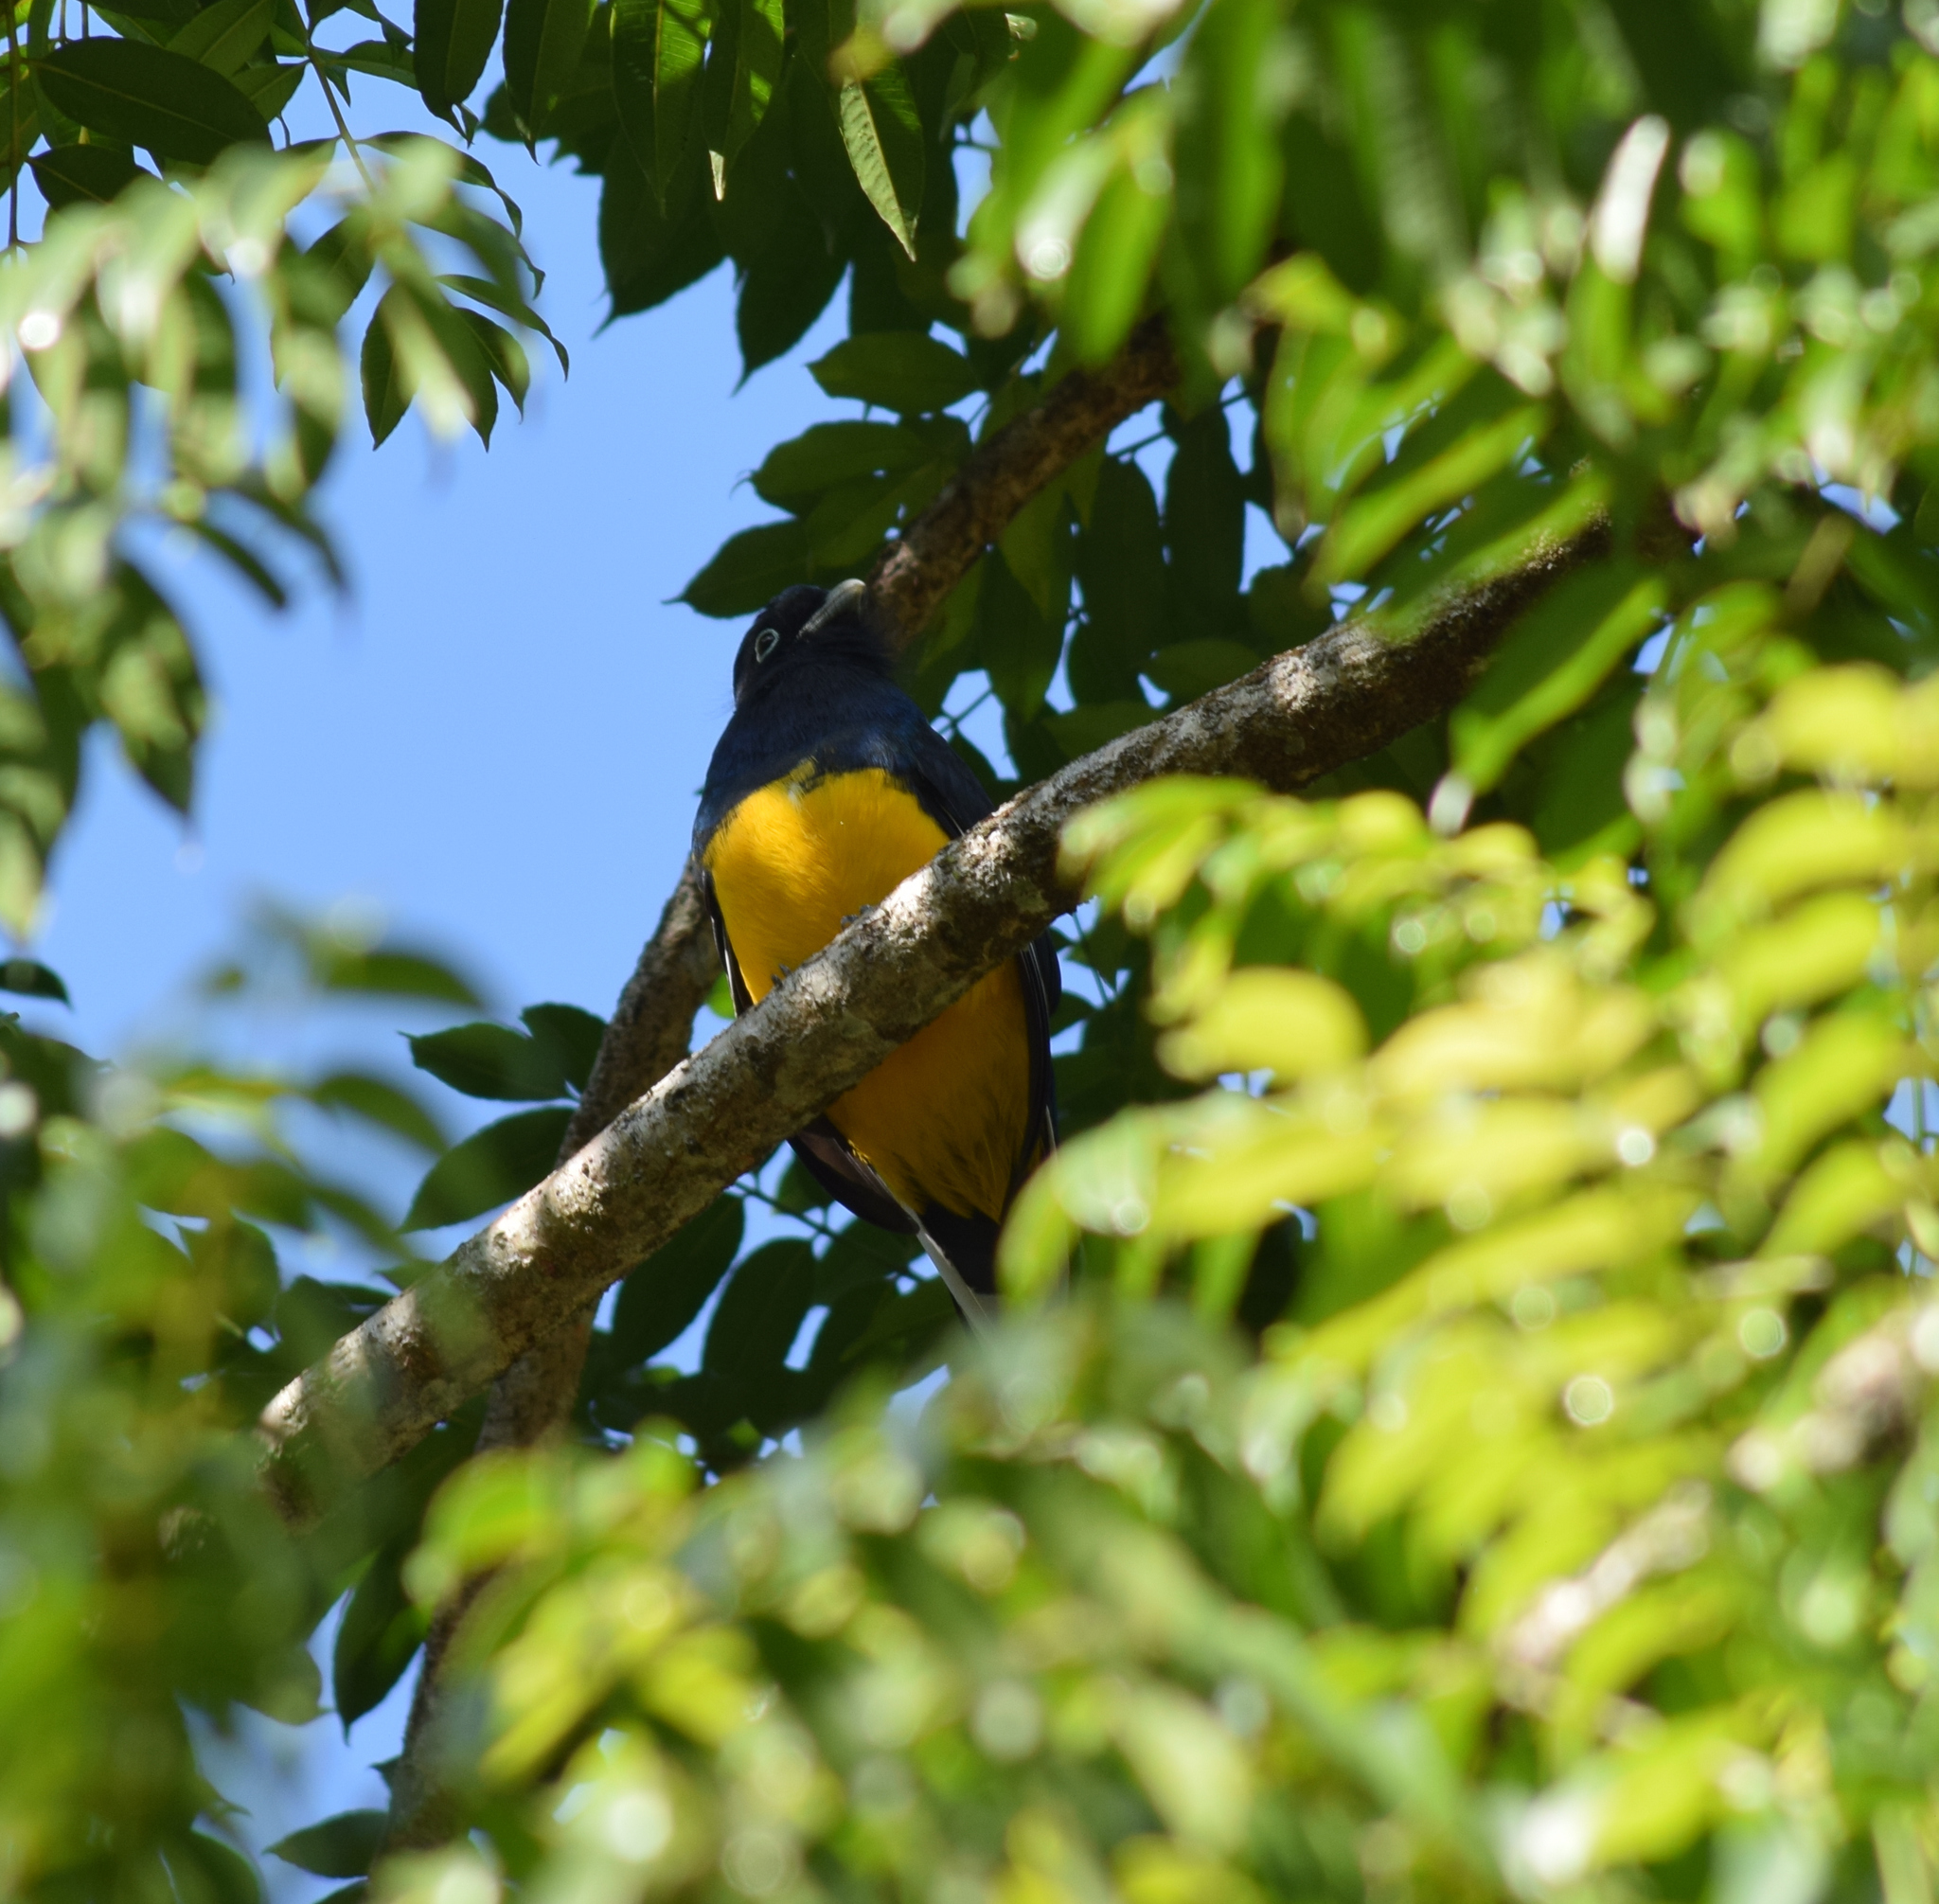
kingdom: Animalia
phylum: Chordata
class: Aves
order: Trogoniformes
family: Trogonidae
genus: Trogon
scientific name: Trogon viridis
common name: Green-backed trogon
